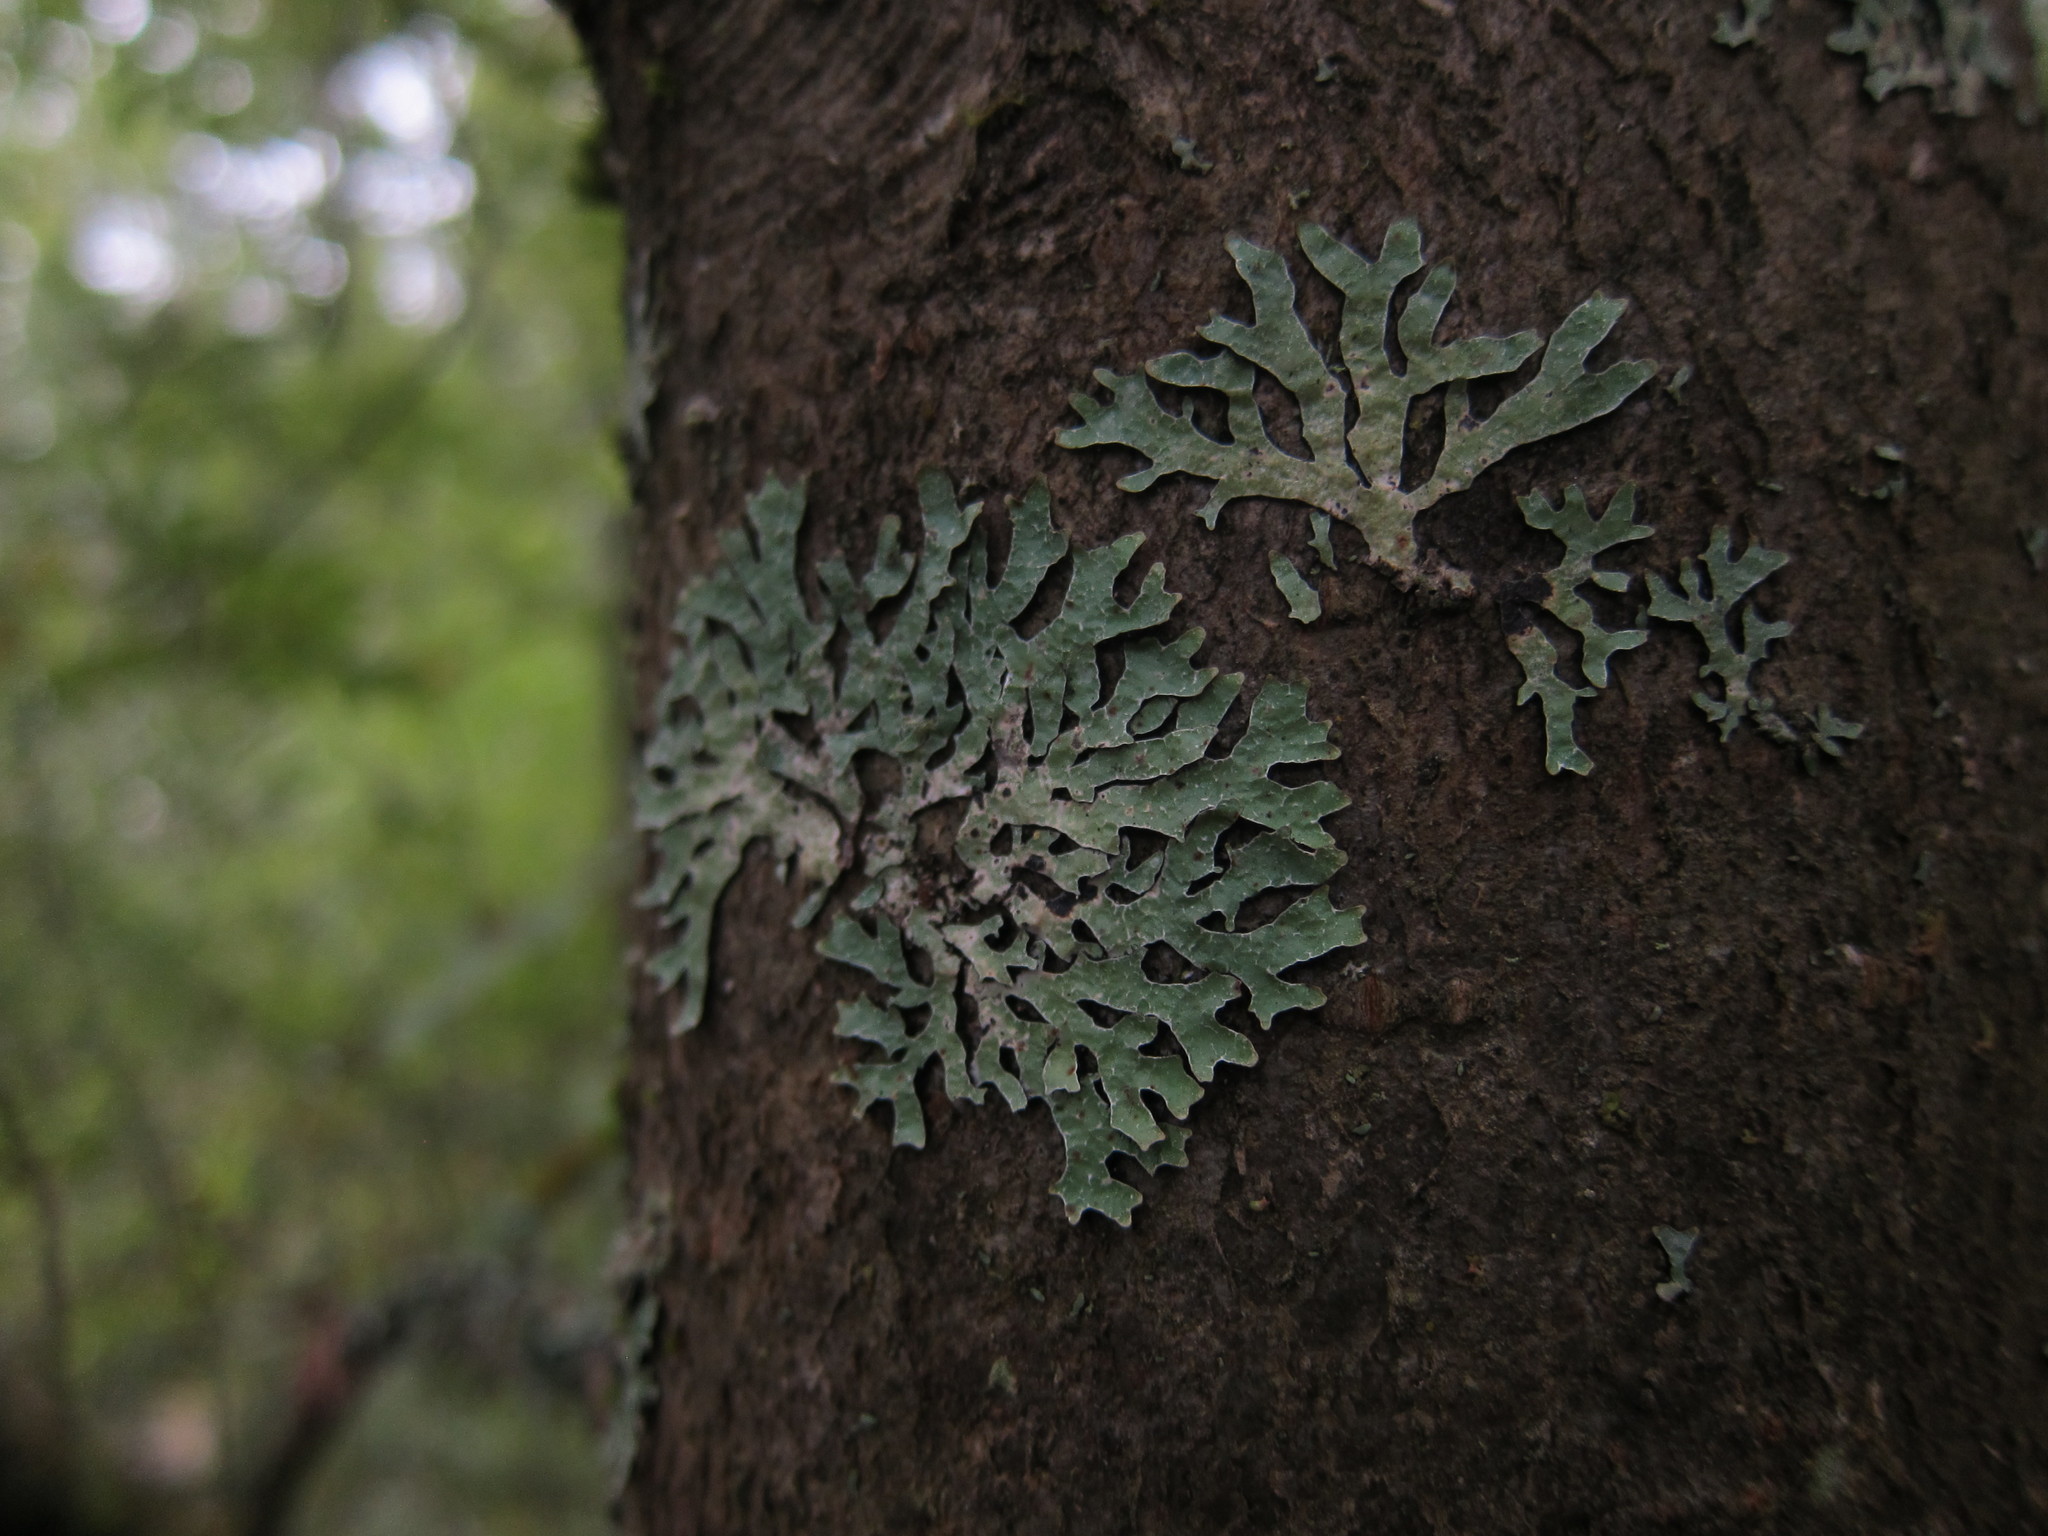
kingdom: Fungi
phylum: Ascomycota
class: Lecanoromycetes
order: Lecanorales
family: Parmeliaceae
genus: Parmelia
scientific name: Parmelia sulcata
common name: Netted shield lichen
